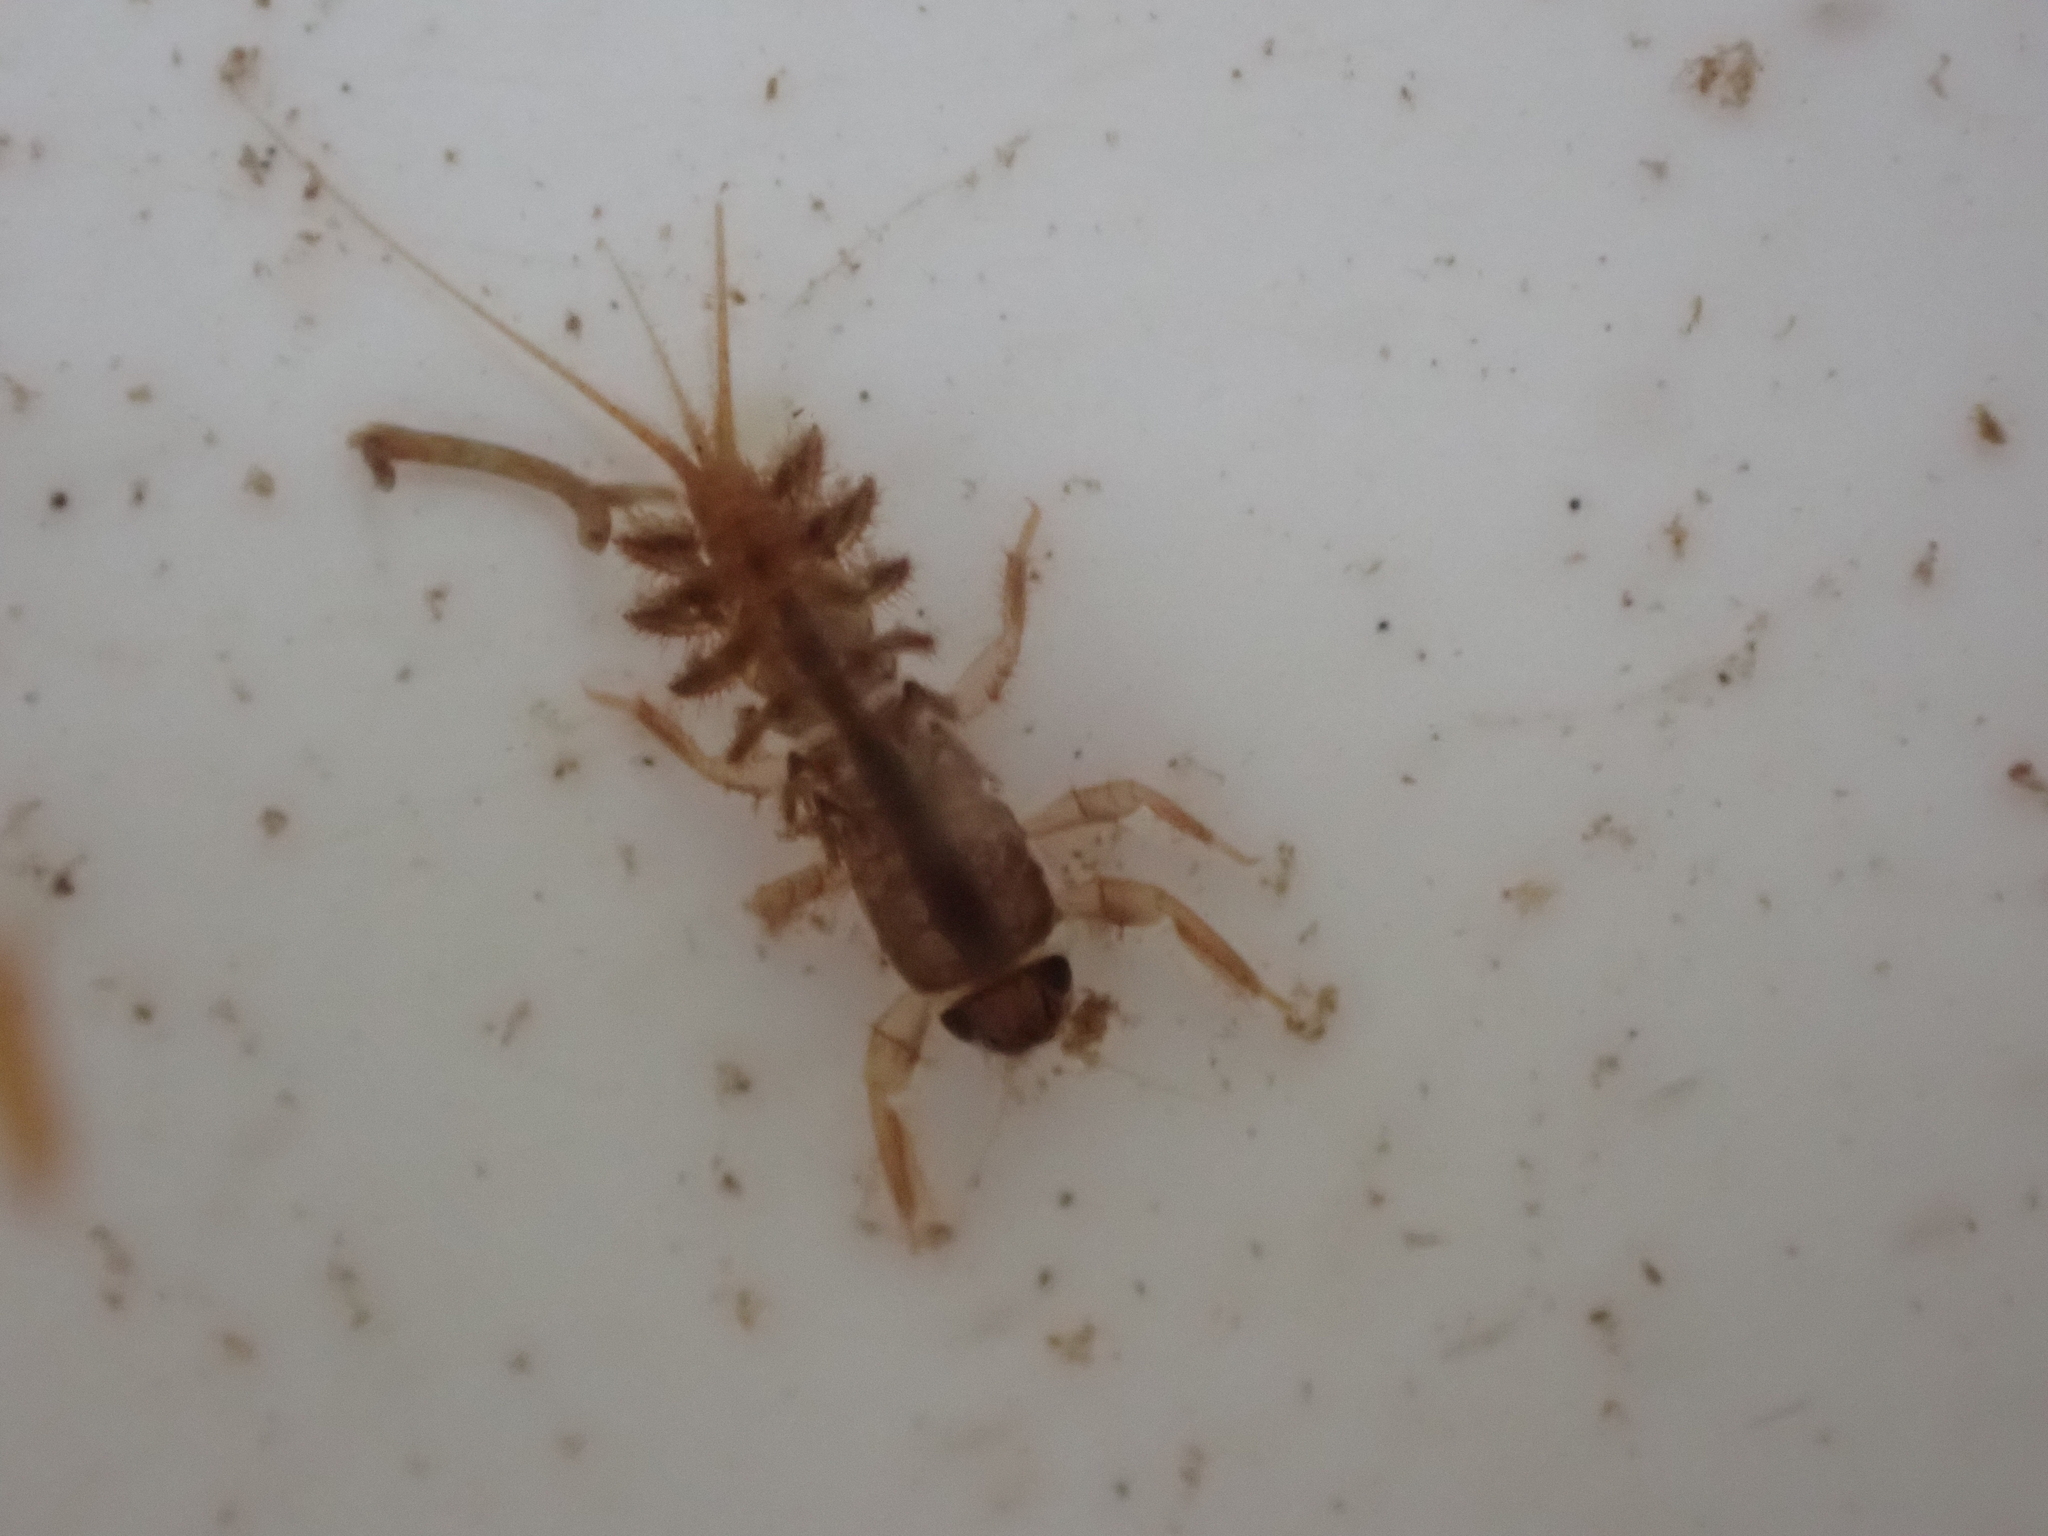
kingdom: Animalia
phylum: Arthropoda
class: Insecta
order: Ephemeroptera
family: Coloburiscidae
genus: Coloburiscus
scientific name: Coloburiscus humeralis
